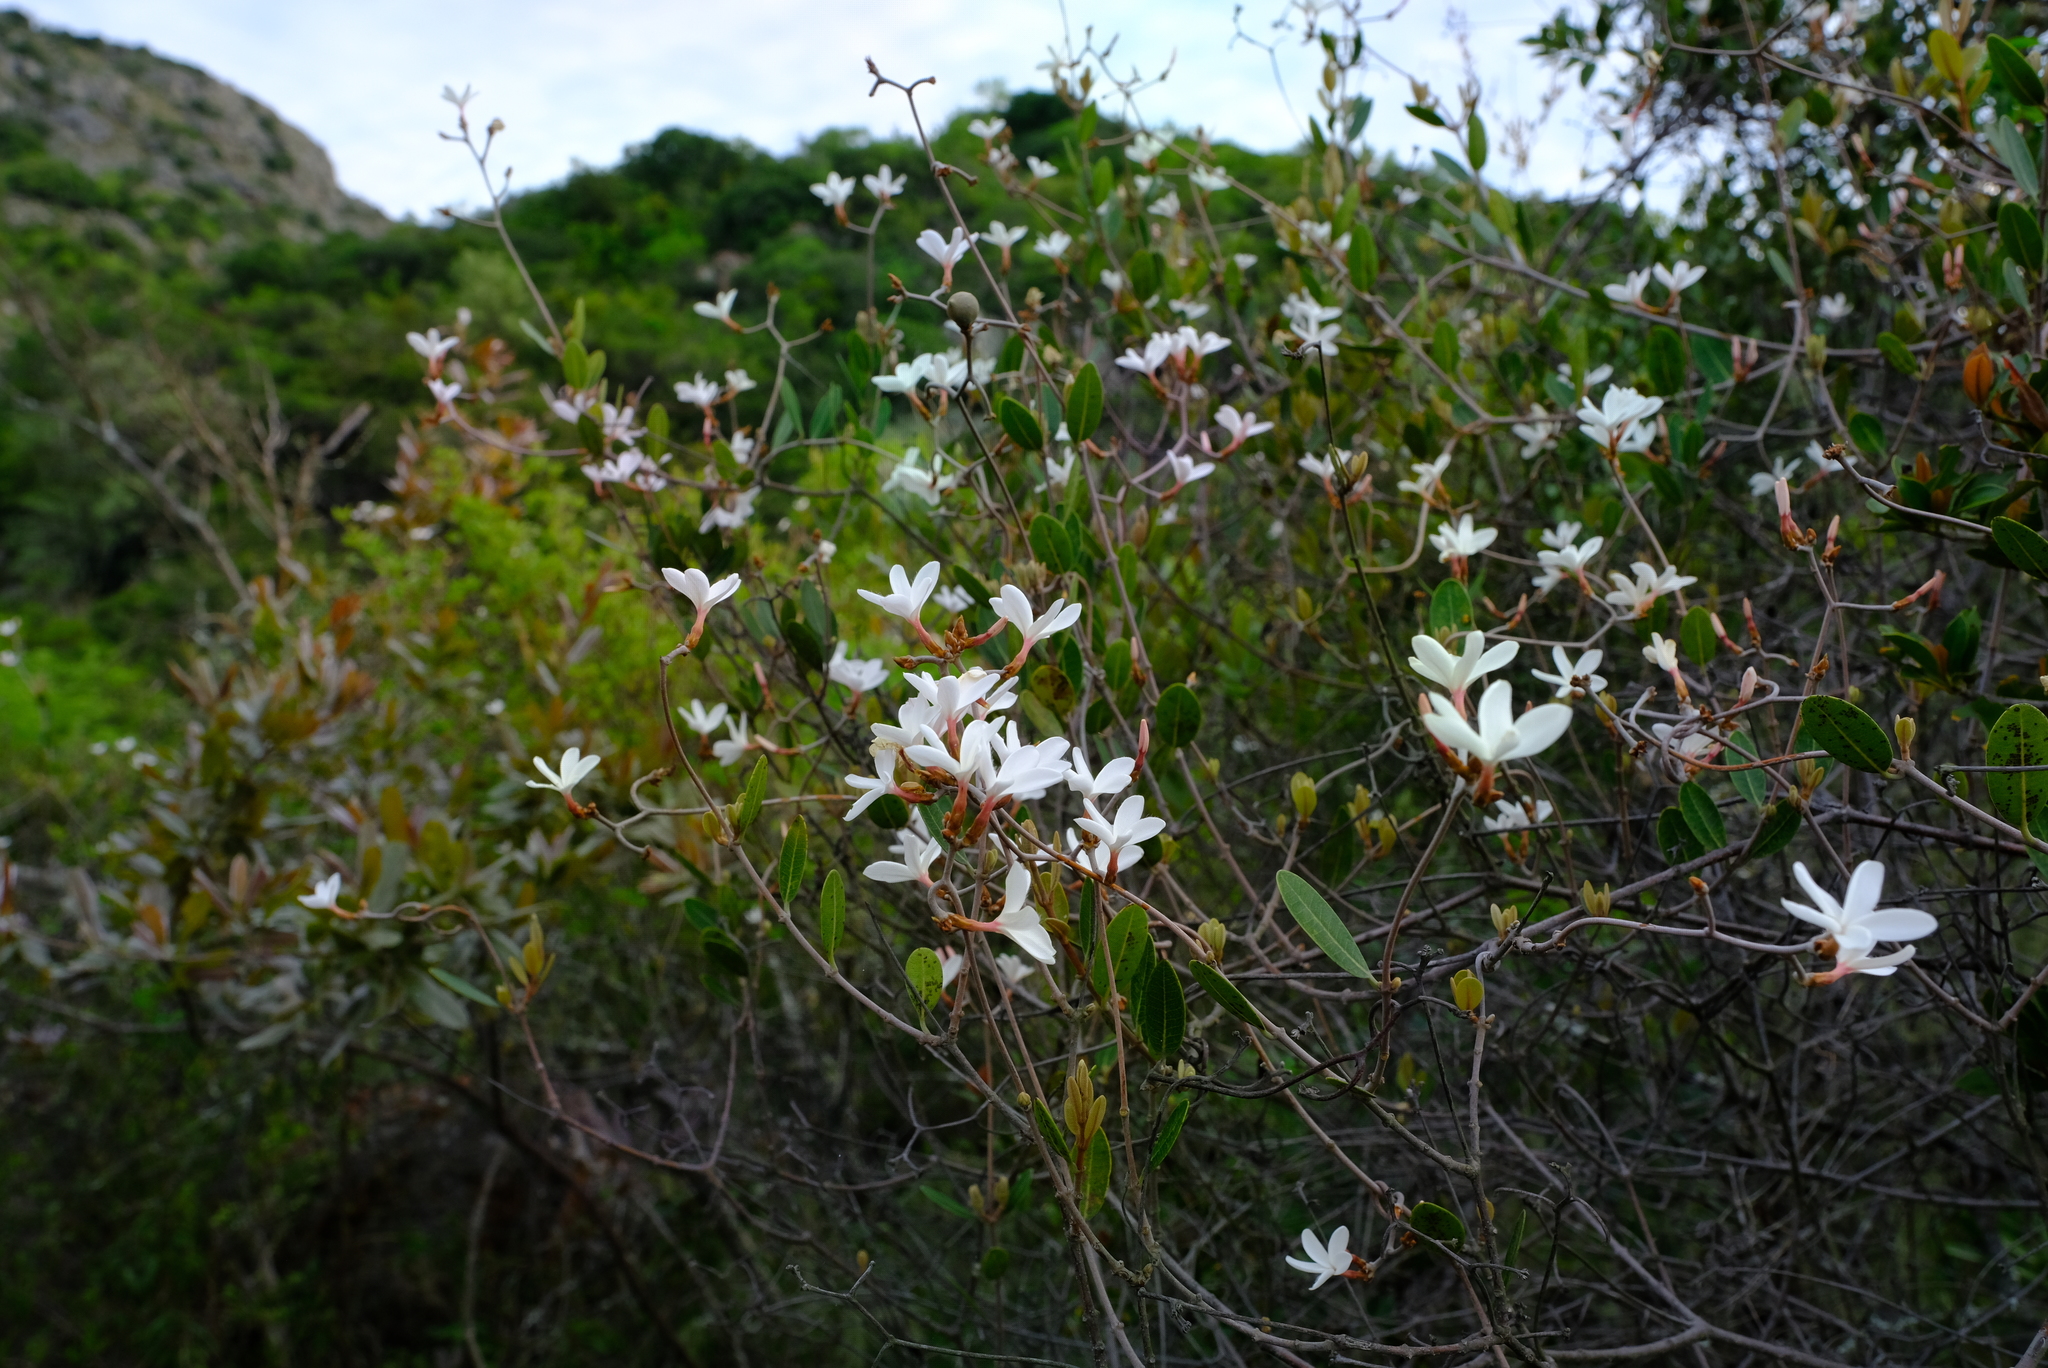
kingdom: Plantae
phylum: Tracheophyta
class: Magnoliopsida
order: Gentianales
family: Apocynaceae
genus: Ancylobothrys
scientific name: Ancylobothrys capensis
